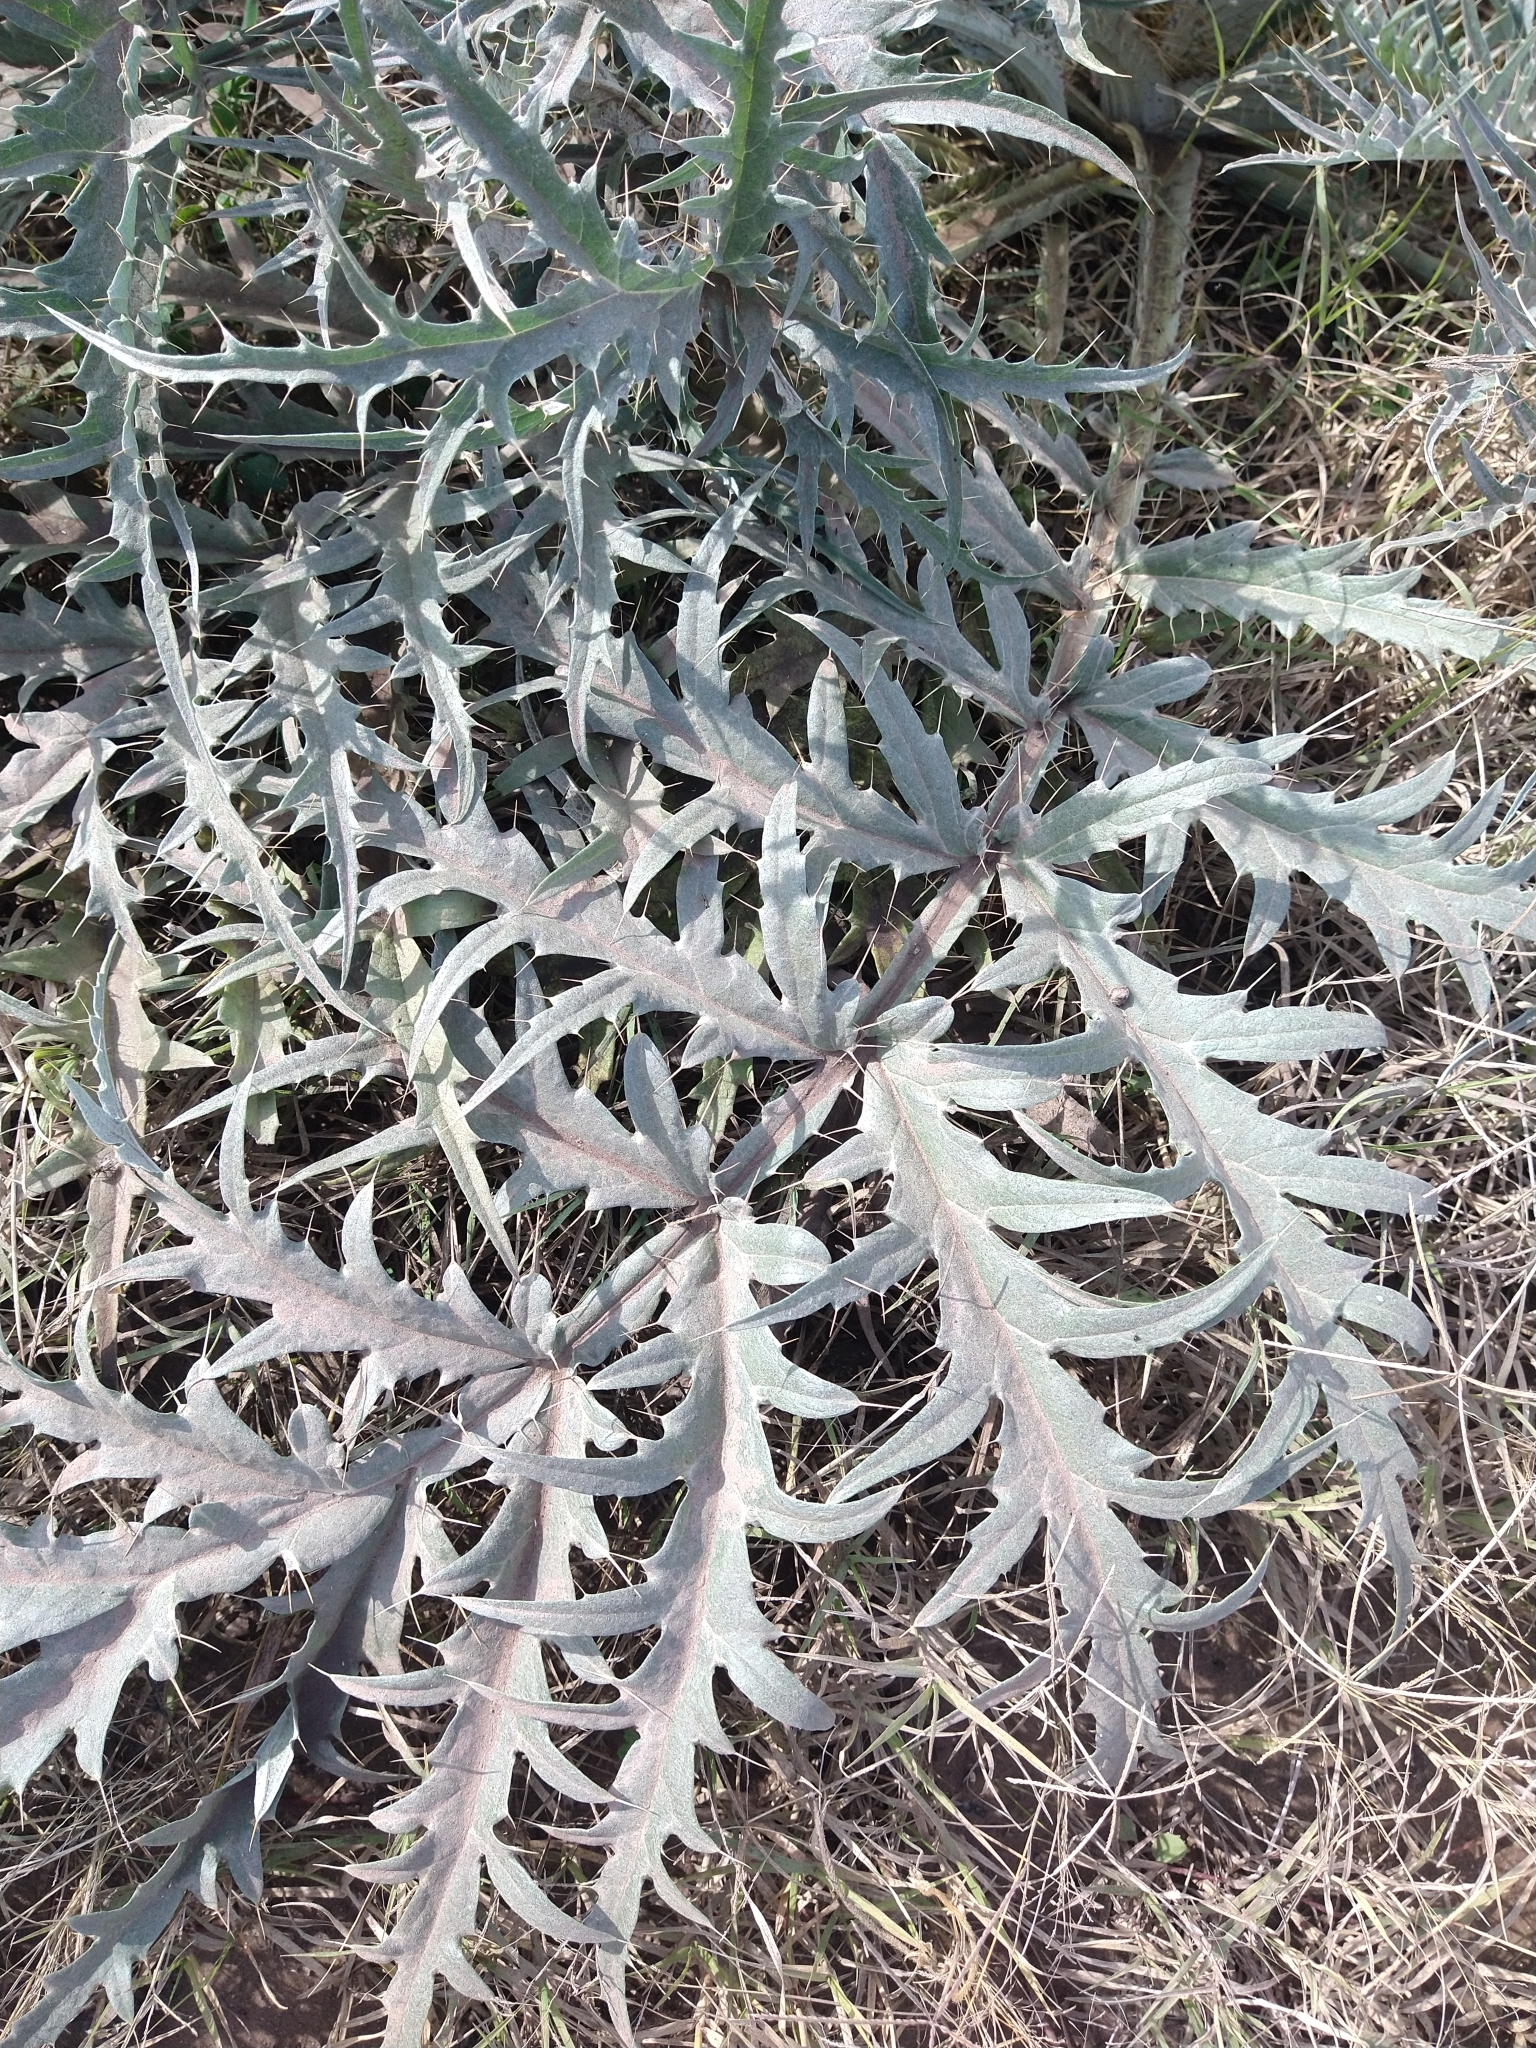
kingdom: Plantae
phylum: Tracheophyta
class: Magnoliopsida
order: Asterales
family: Asteraceae
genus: Cynara
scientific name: Cynara cardunculus
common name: Globe artichoke
